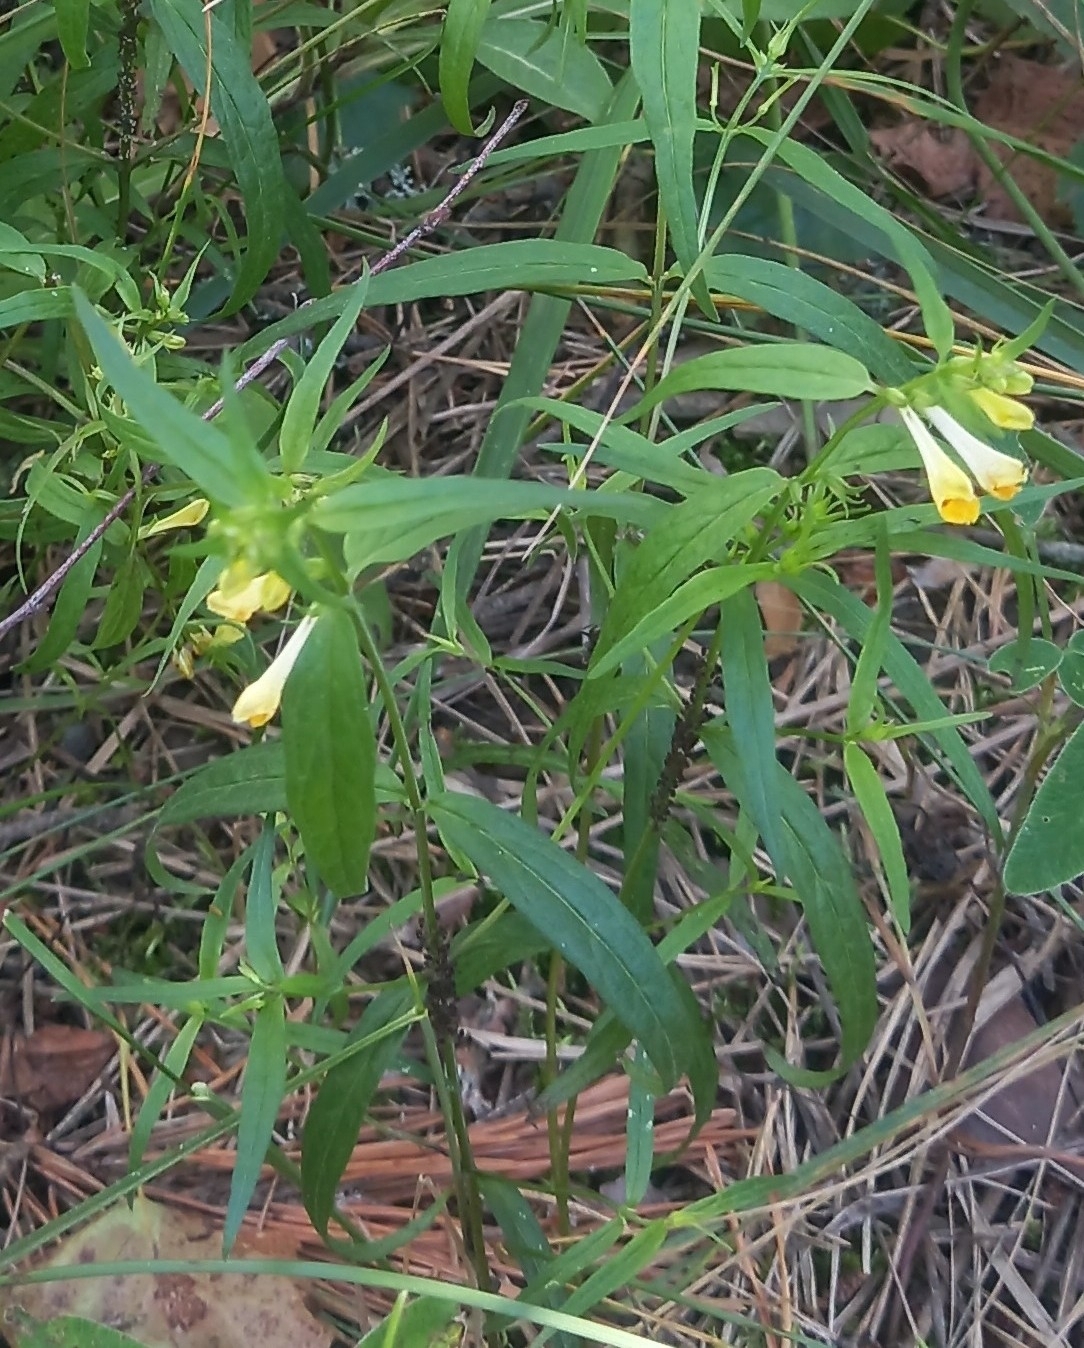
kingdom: Plantae
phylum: Tracheophyta
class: Magnoliopsida
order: Lamiales
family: Orobanchaceae
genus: Melampyrum
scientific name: Melampyrum pratense
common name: Common cow-wheat
